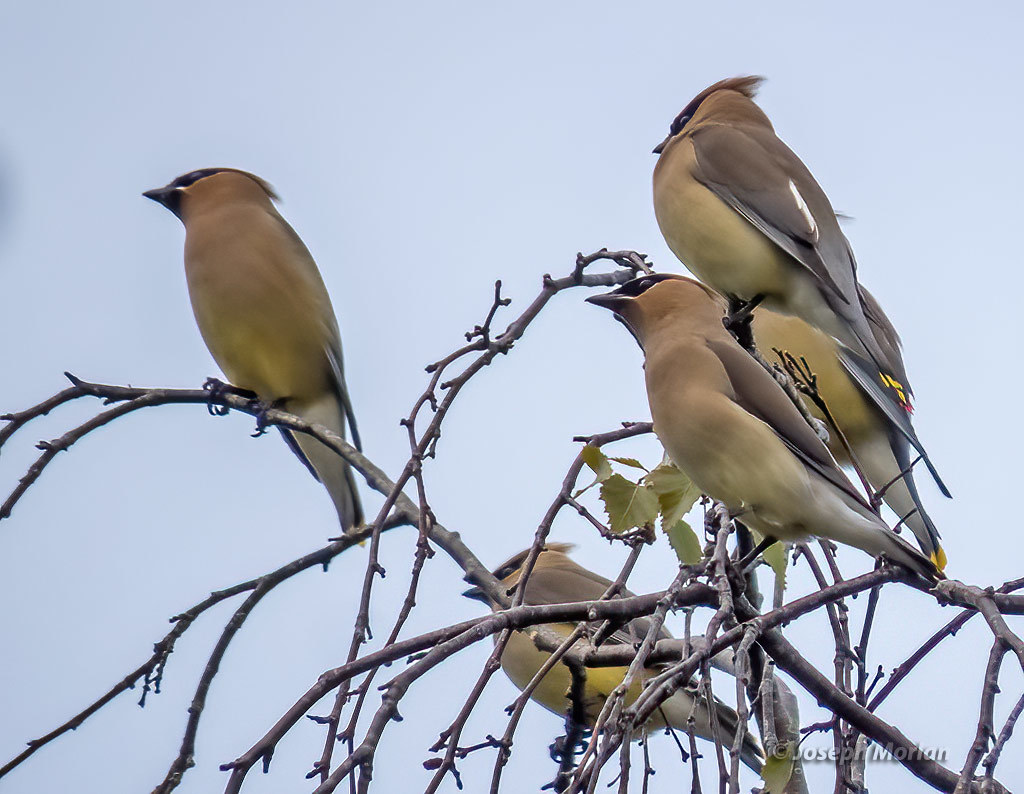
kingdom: Animalia
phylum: Chordata
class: Aves
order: Passeriformes
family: Bombycillidae
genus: Bombycilla
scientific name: Bombycilla cedrorum
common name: Cedar waxwing
